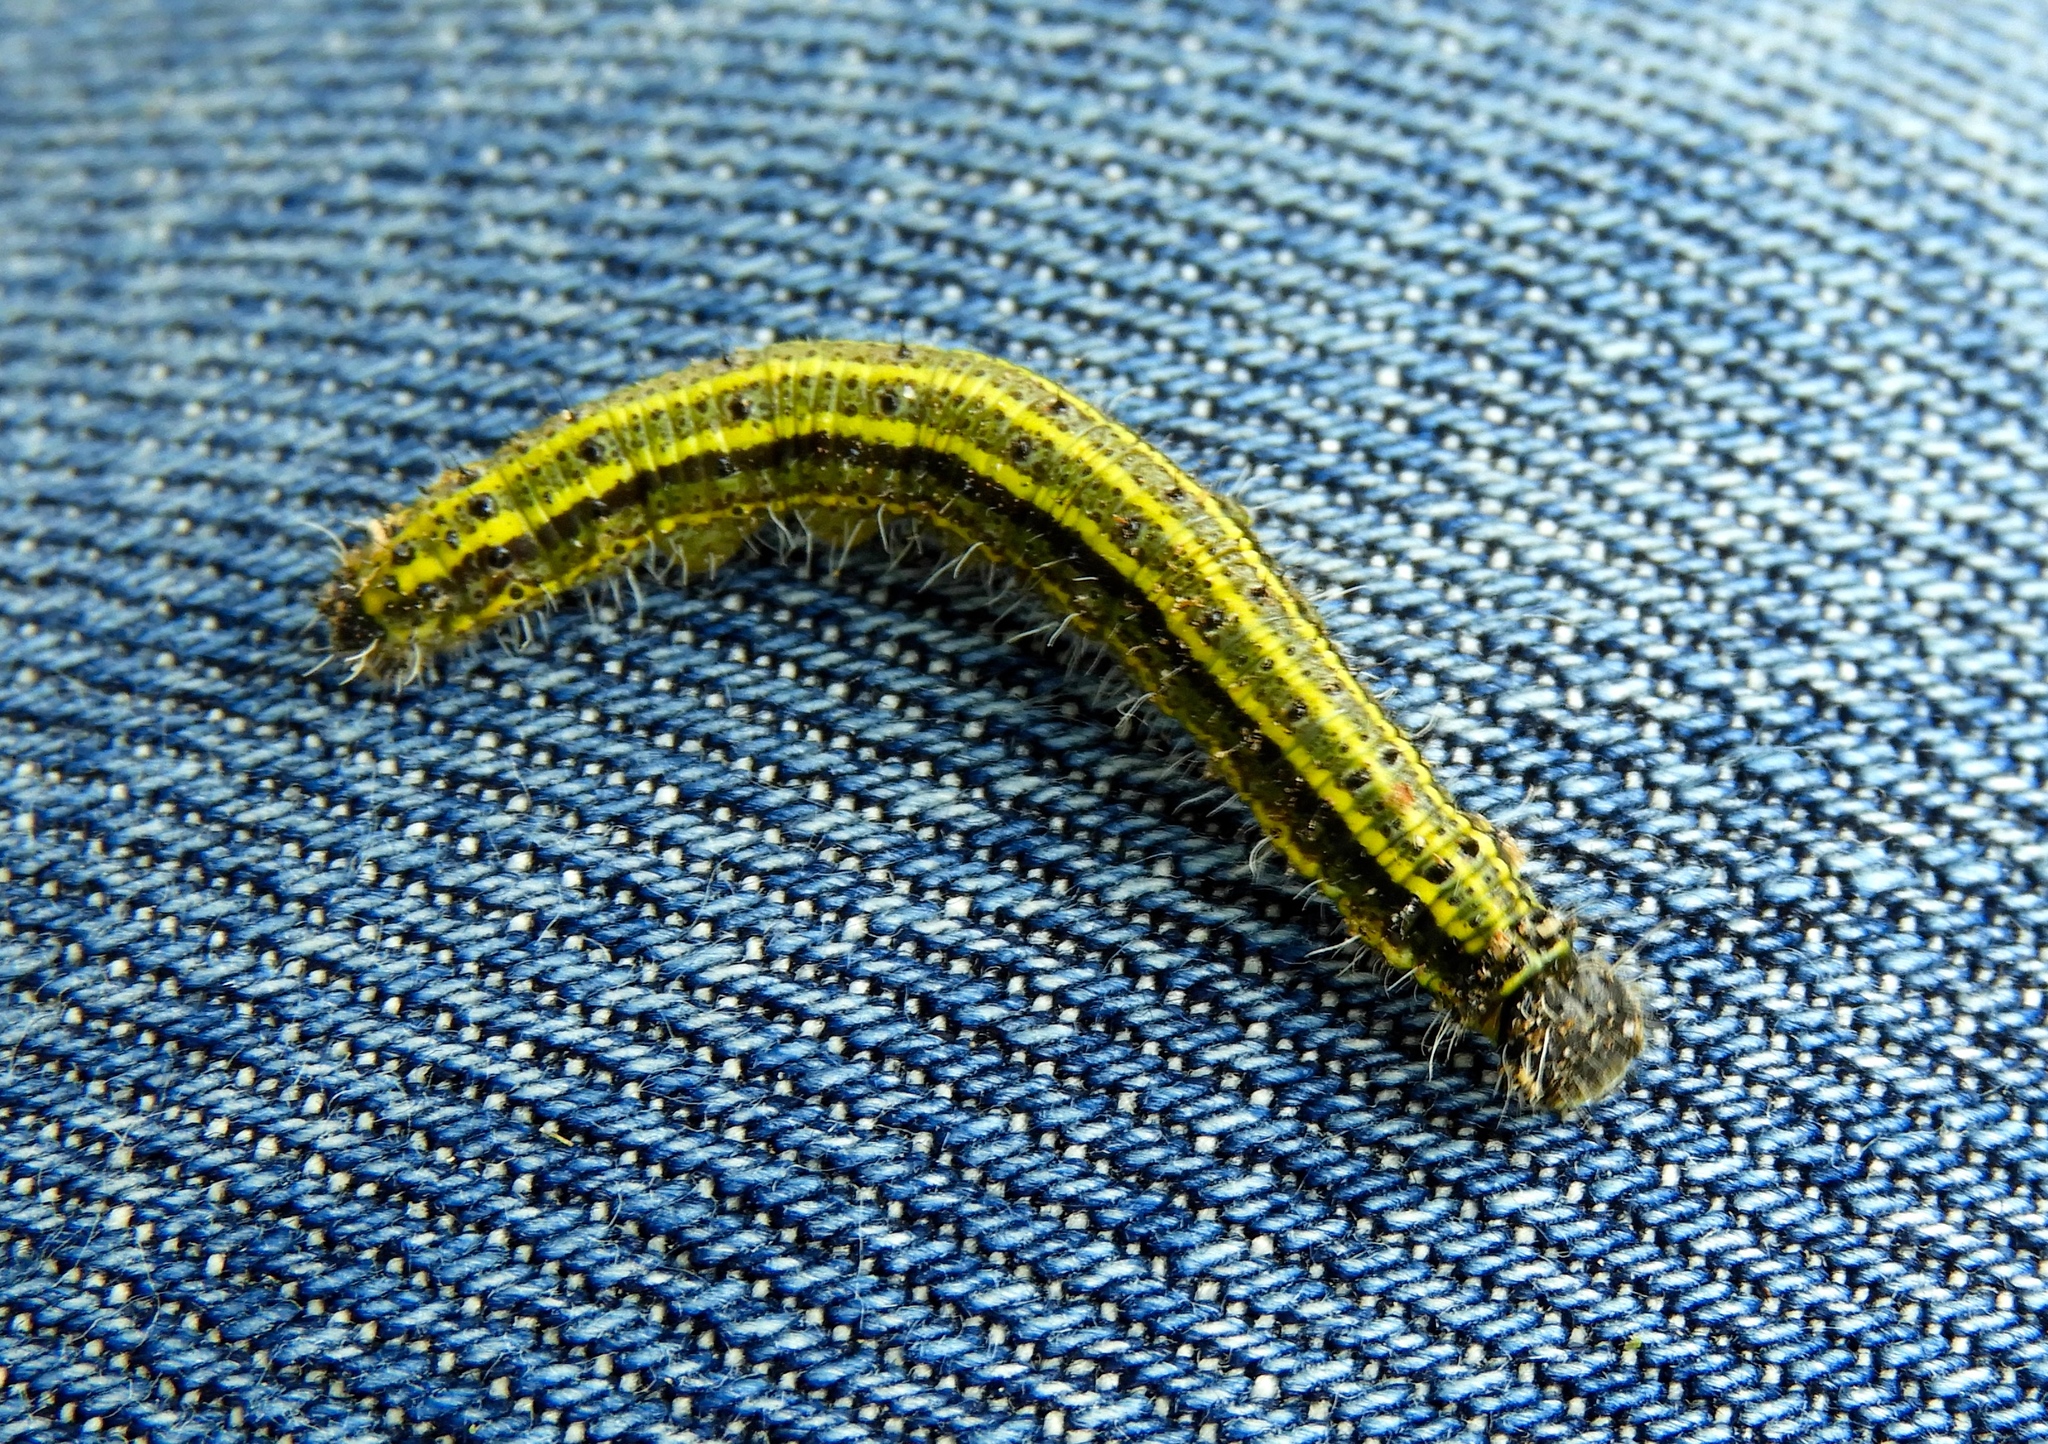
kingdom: Animalia
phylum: Arthropoda
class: Insecta
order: Lepidoptera
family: Pieridae
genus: Ascia
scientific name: Ascia monuste
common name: Great southern white
